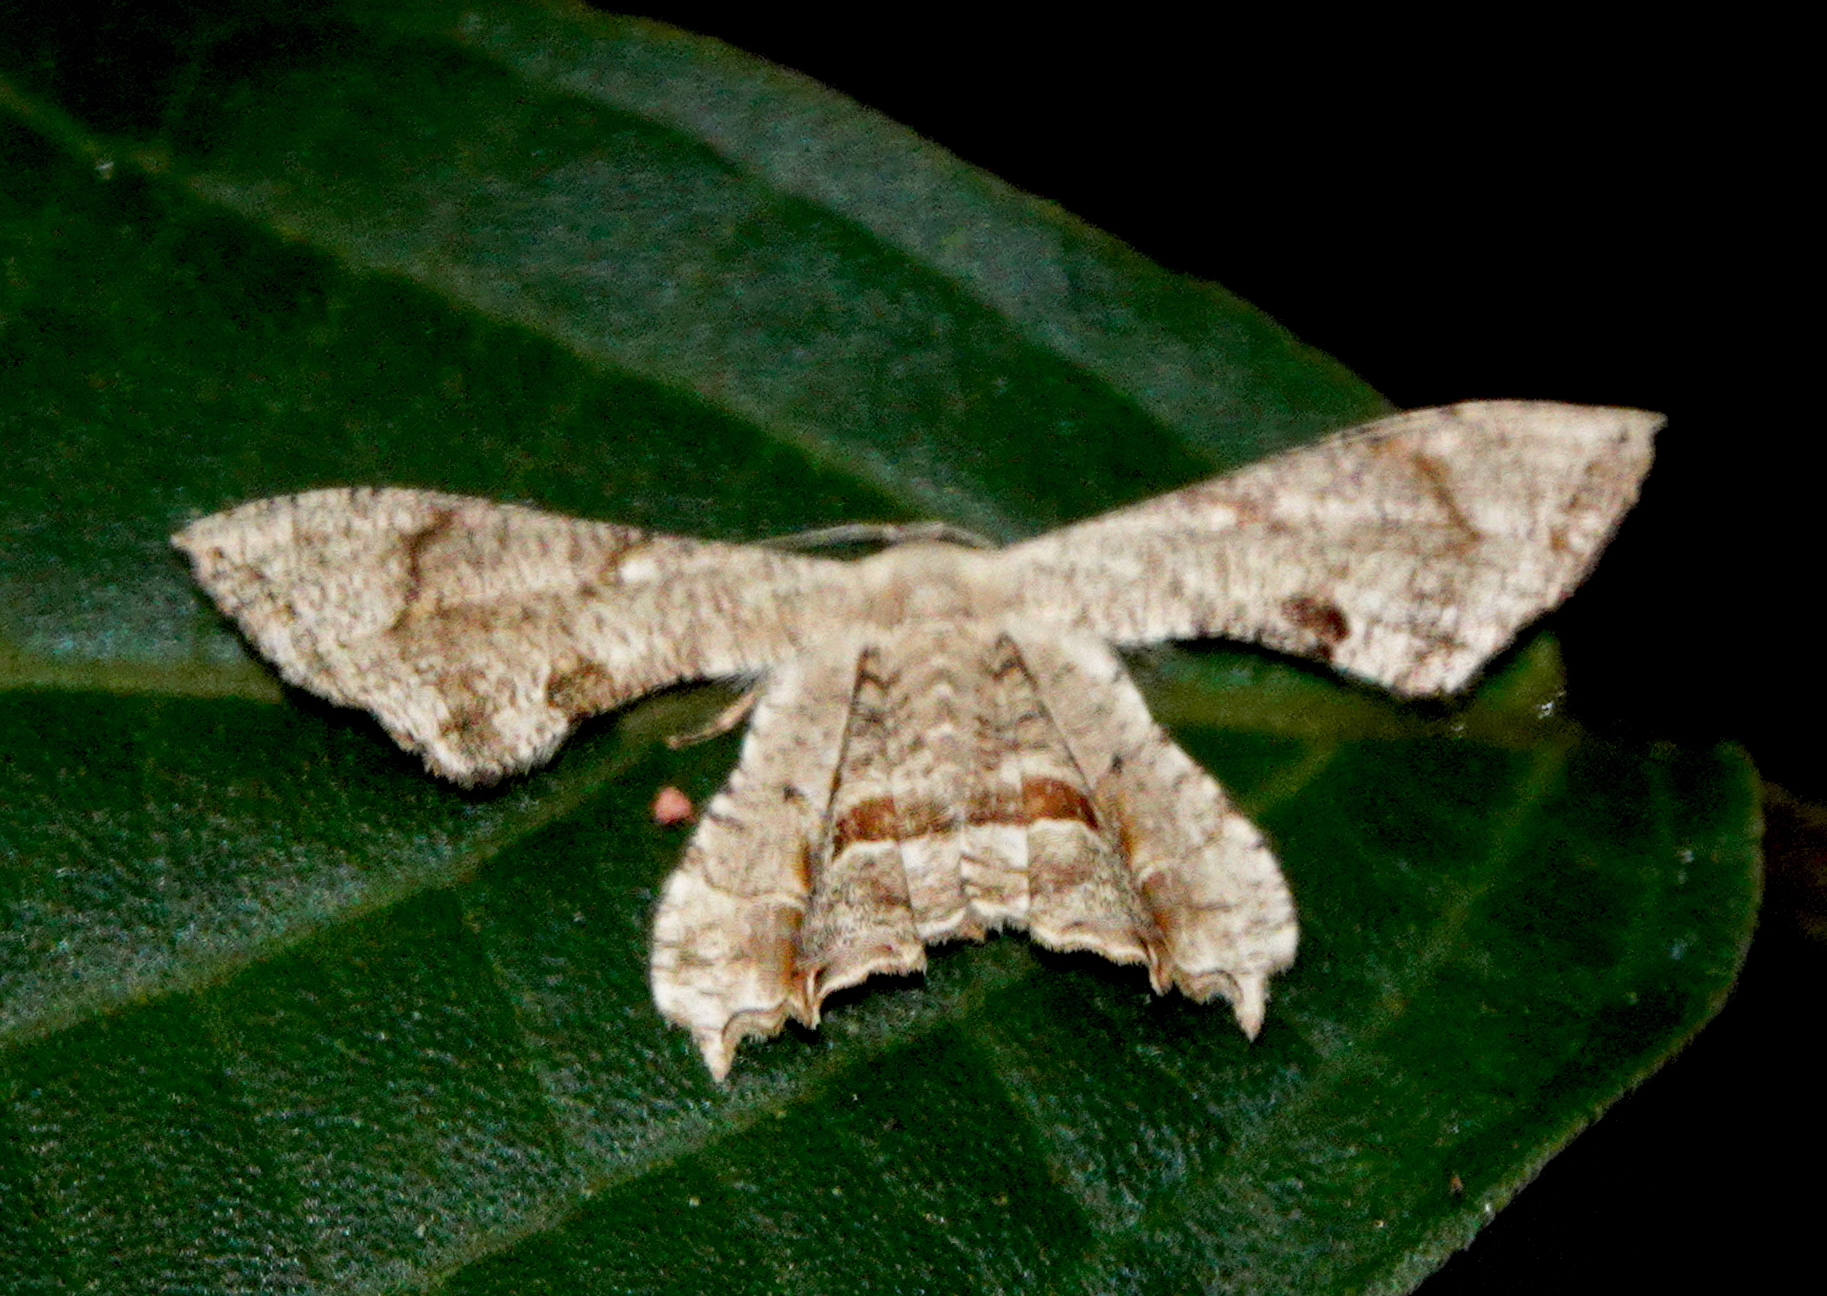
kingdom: Animalia
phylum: Arthropoda
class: Insecta
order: Lepidoptera
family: Uraniidae
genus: Epiplema
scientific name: Epiplema incolorata
